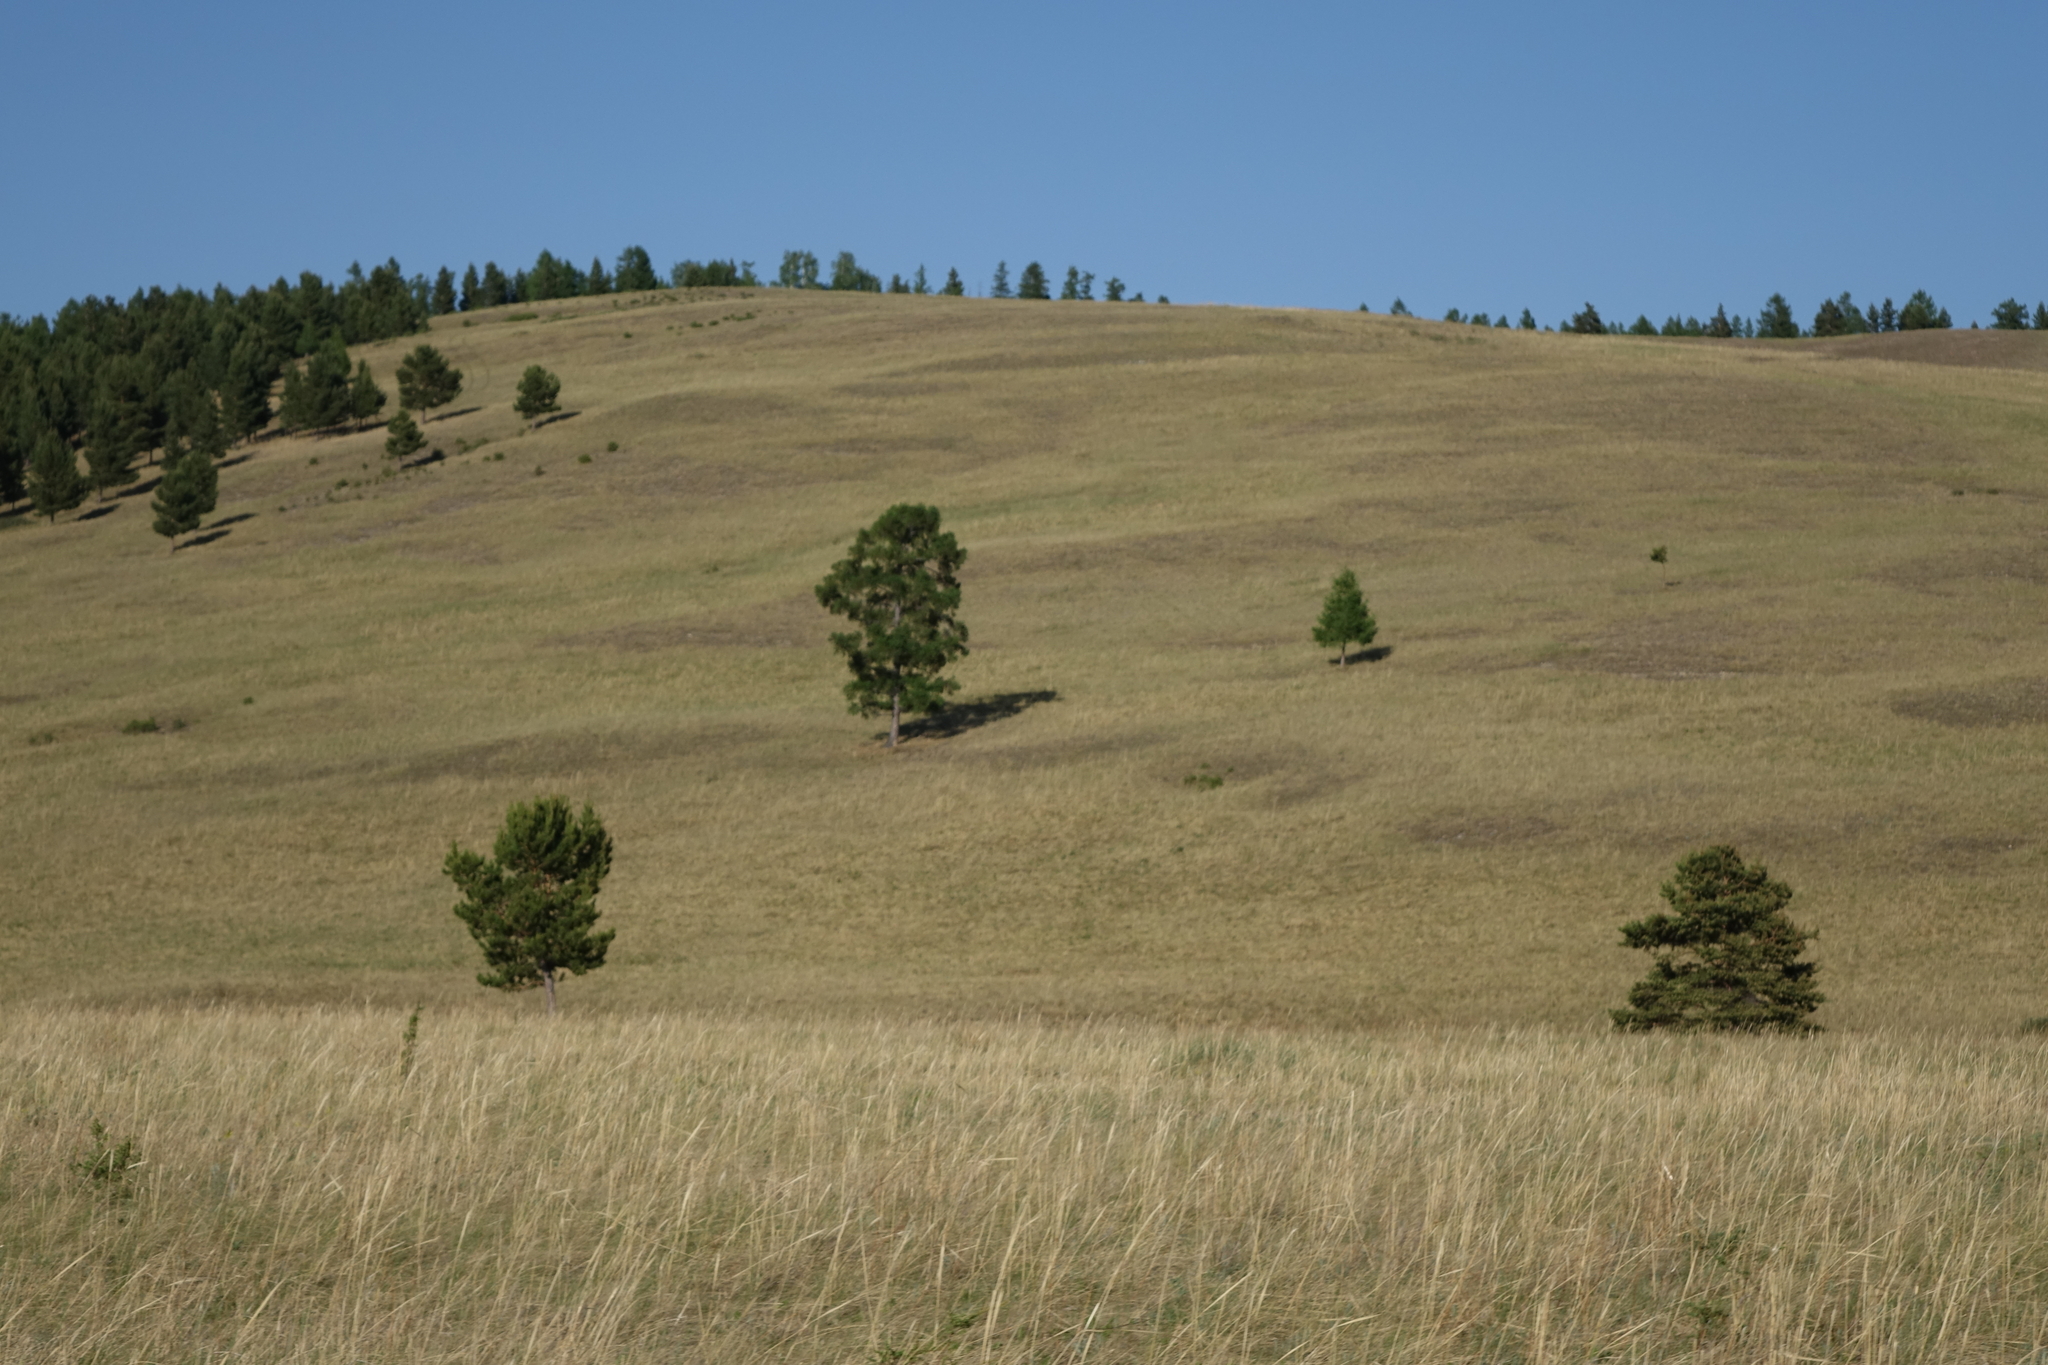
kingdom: Plantae
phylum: Tracheophyta
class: Pinopsida
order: Pinales
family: Pinaceae
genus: Larix
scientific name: Larix sibirica
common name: Siberian larch
